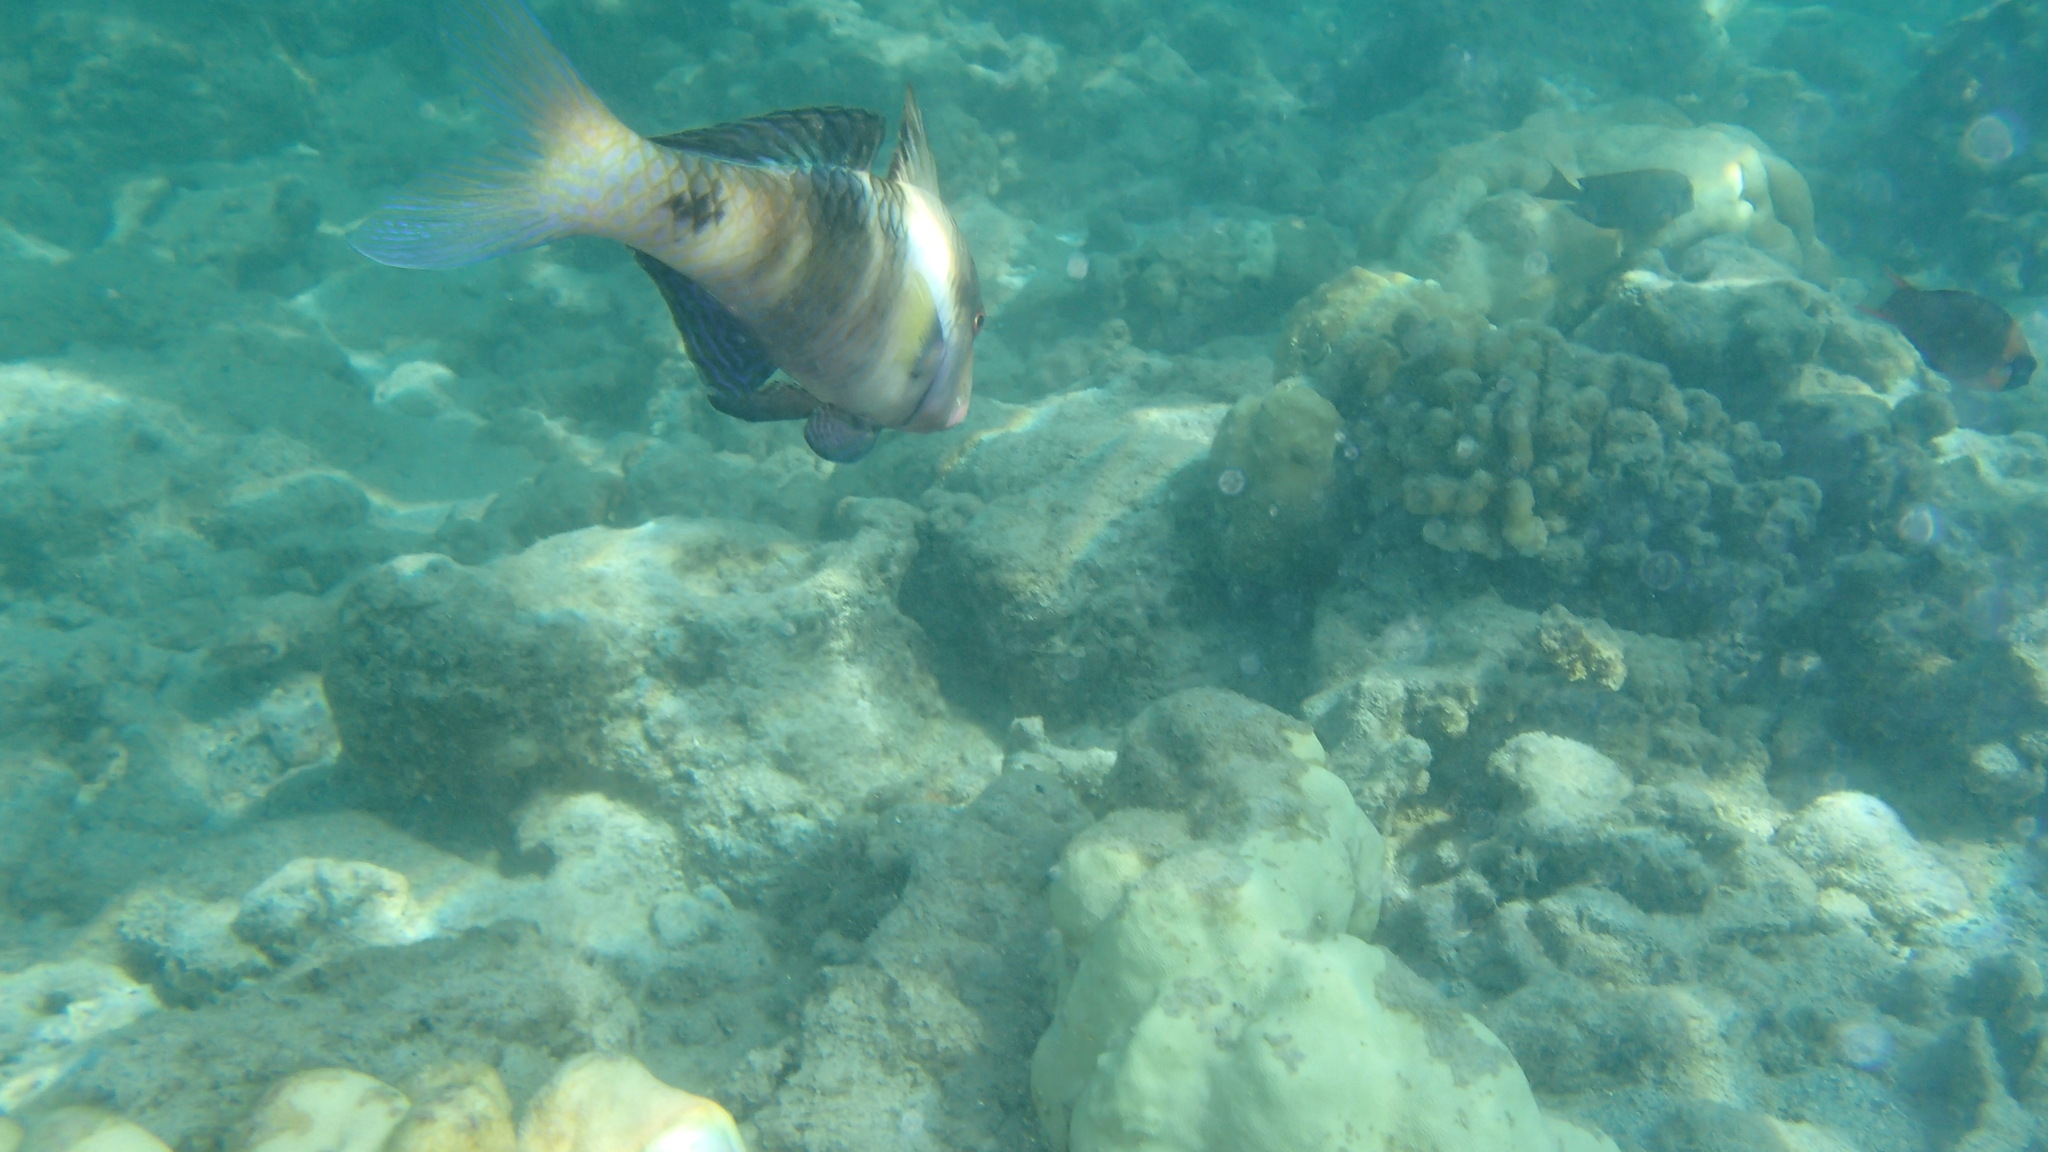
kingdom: Animalia
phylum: Chordata
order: Perciformes
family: Mullidae
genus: Parupeneus
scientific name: Parupeneus multifasciatus
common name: Manybar goatfish
